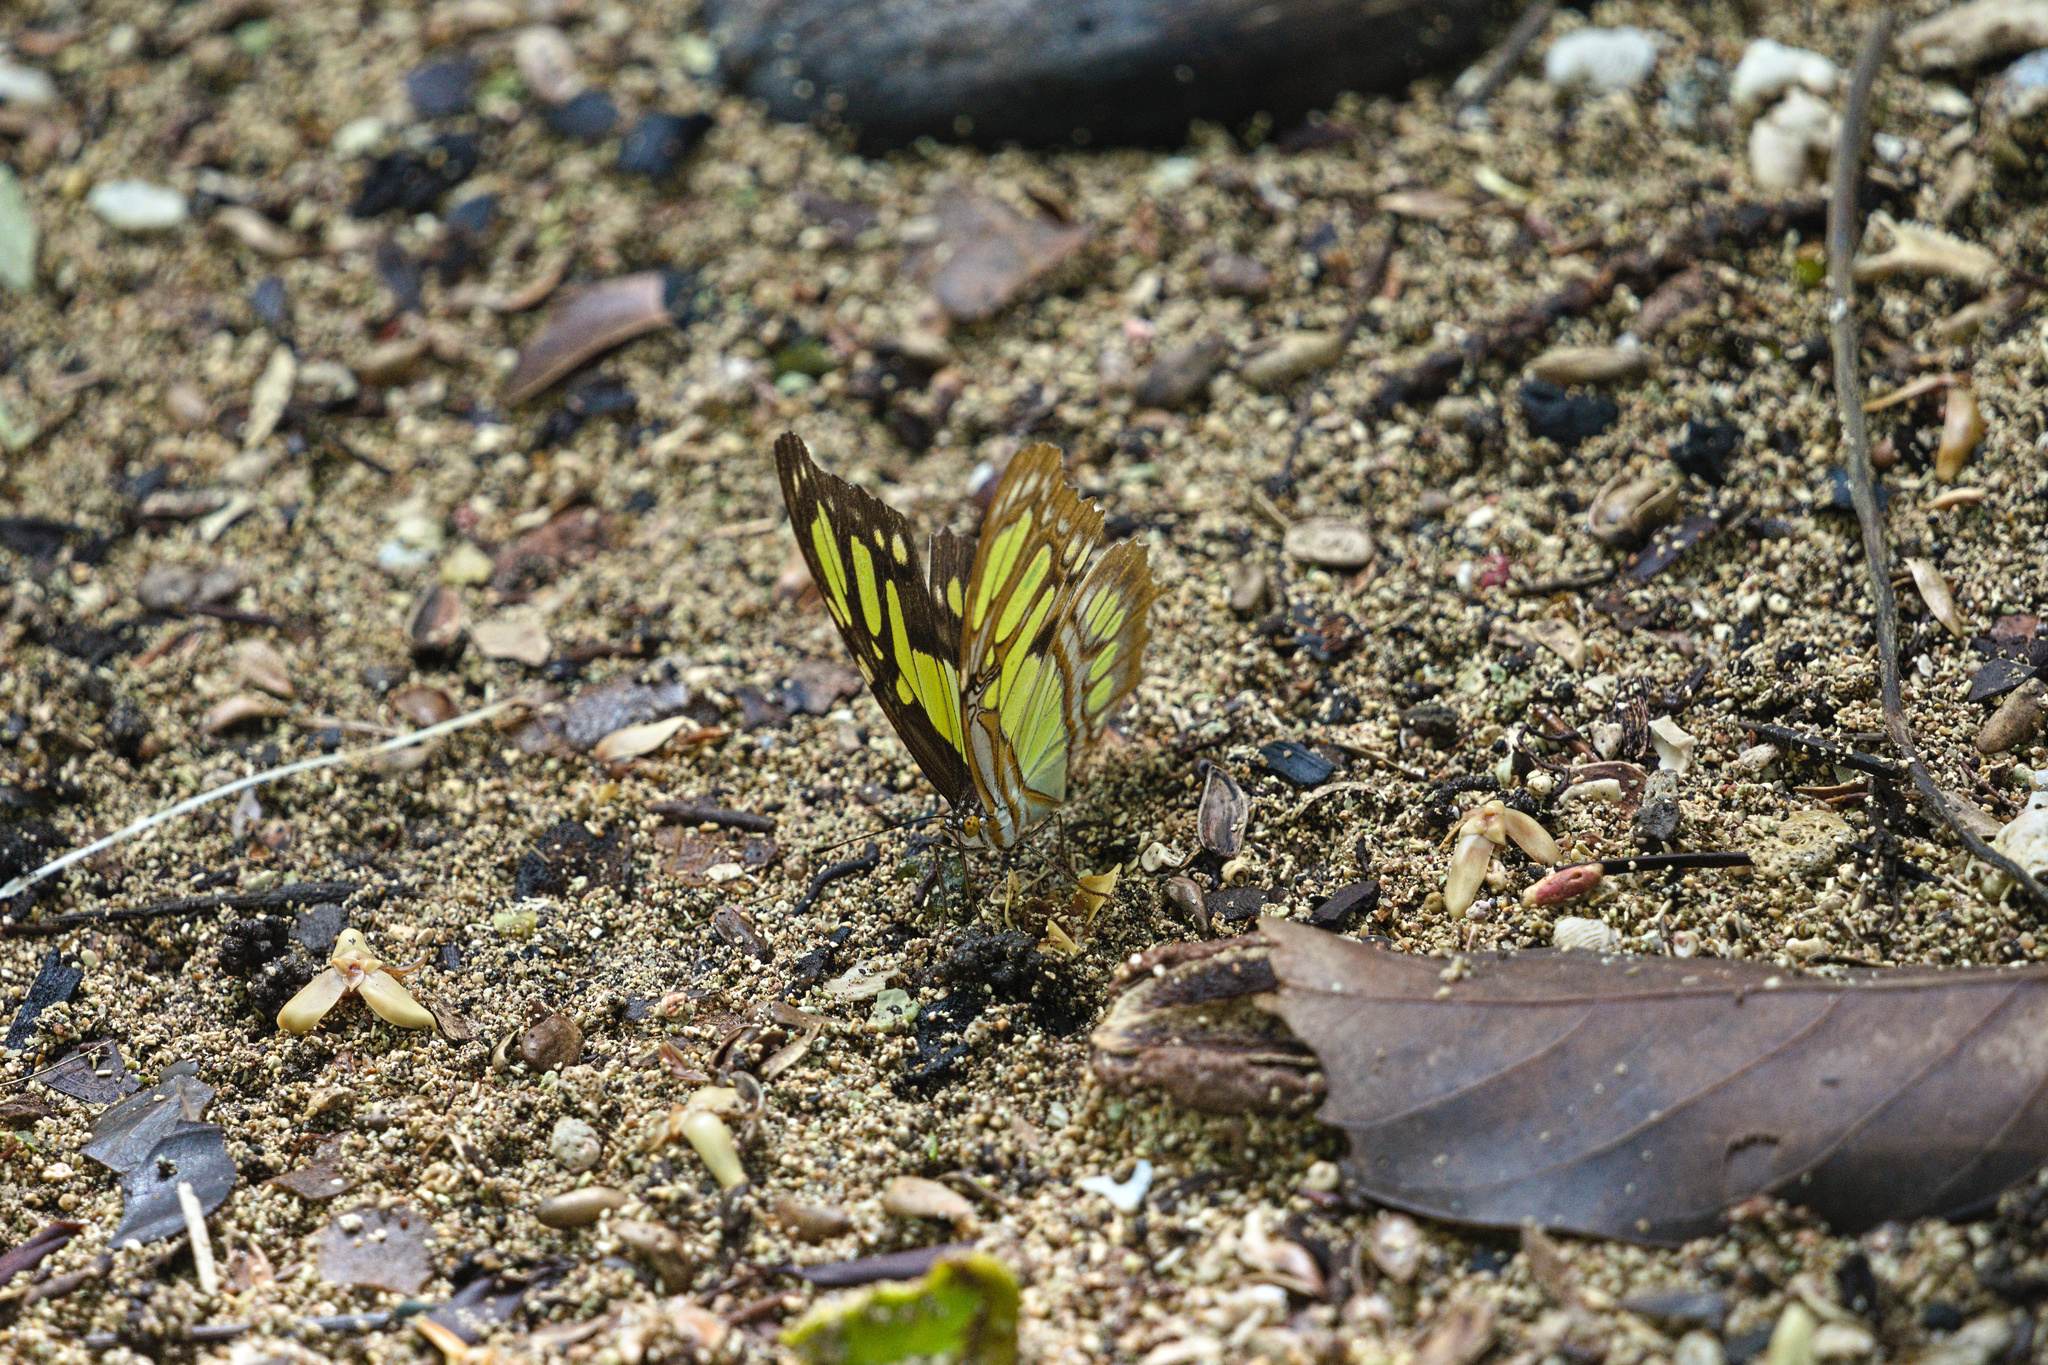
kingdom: Animalia
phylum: Arthropoda
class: Insecta
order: Lepidoptera
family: Nymphalidae
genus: Siproeta
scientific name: Siproeta stelenes
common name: Malachite
